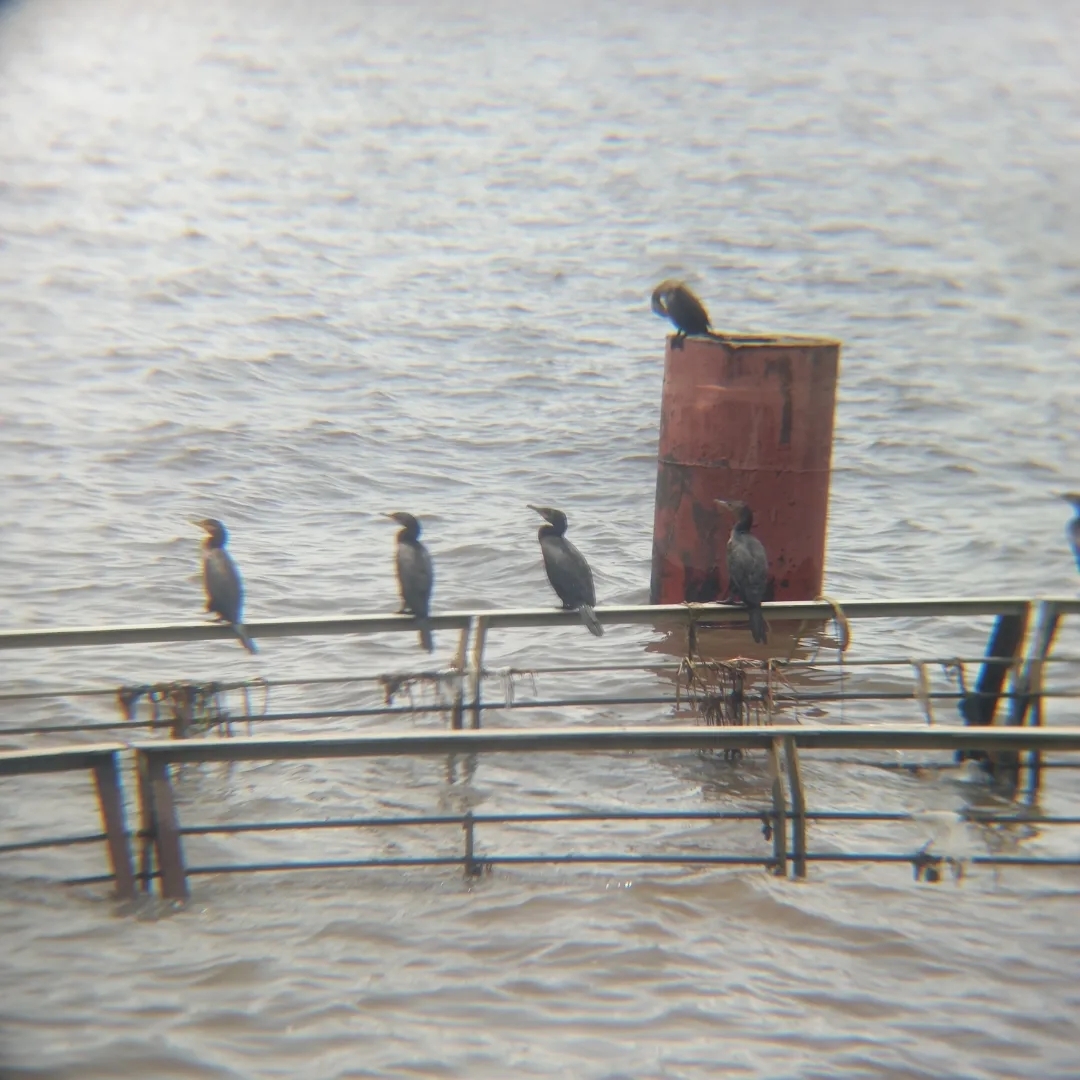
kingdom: Animalia
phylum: Chordata
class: Aves
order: Suliformes
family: Phalacrocoracidae
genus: Phalacrocorax
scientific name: Phalacrocorax brasilianus
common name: Neotropic cormorant
